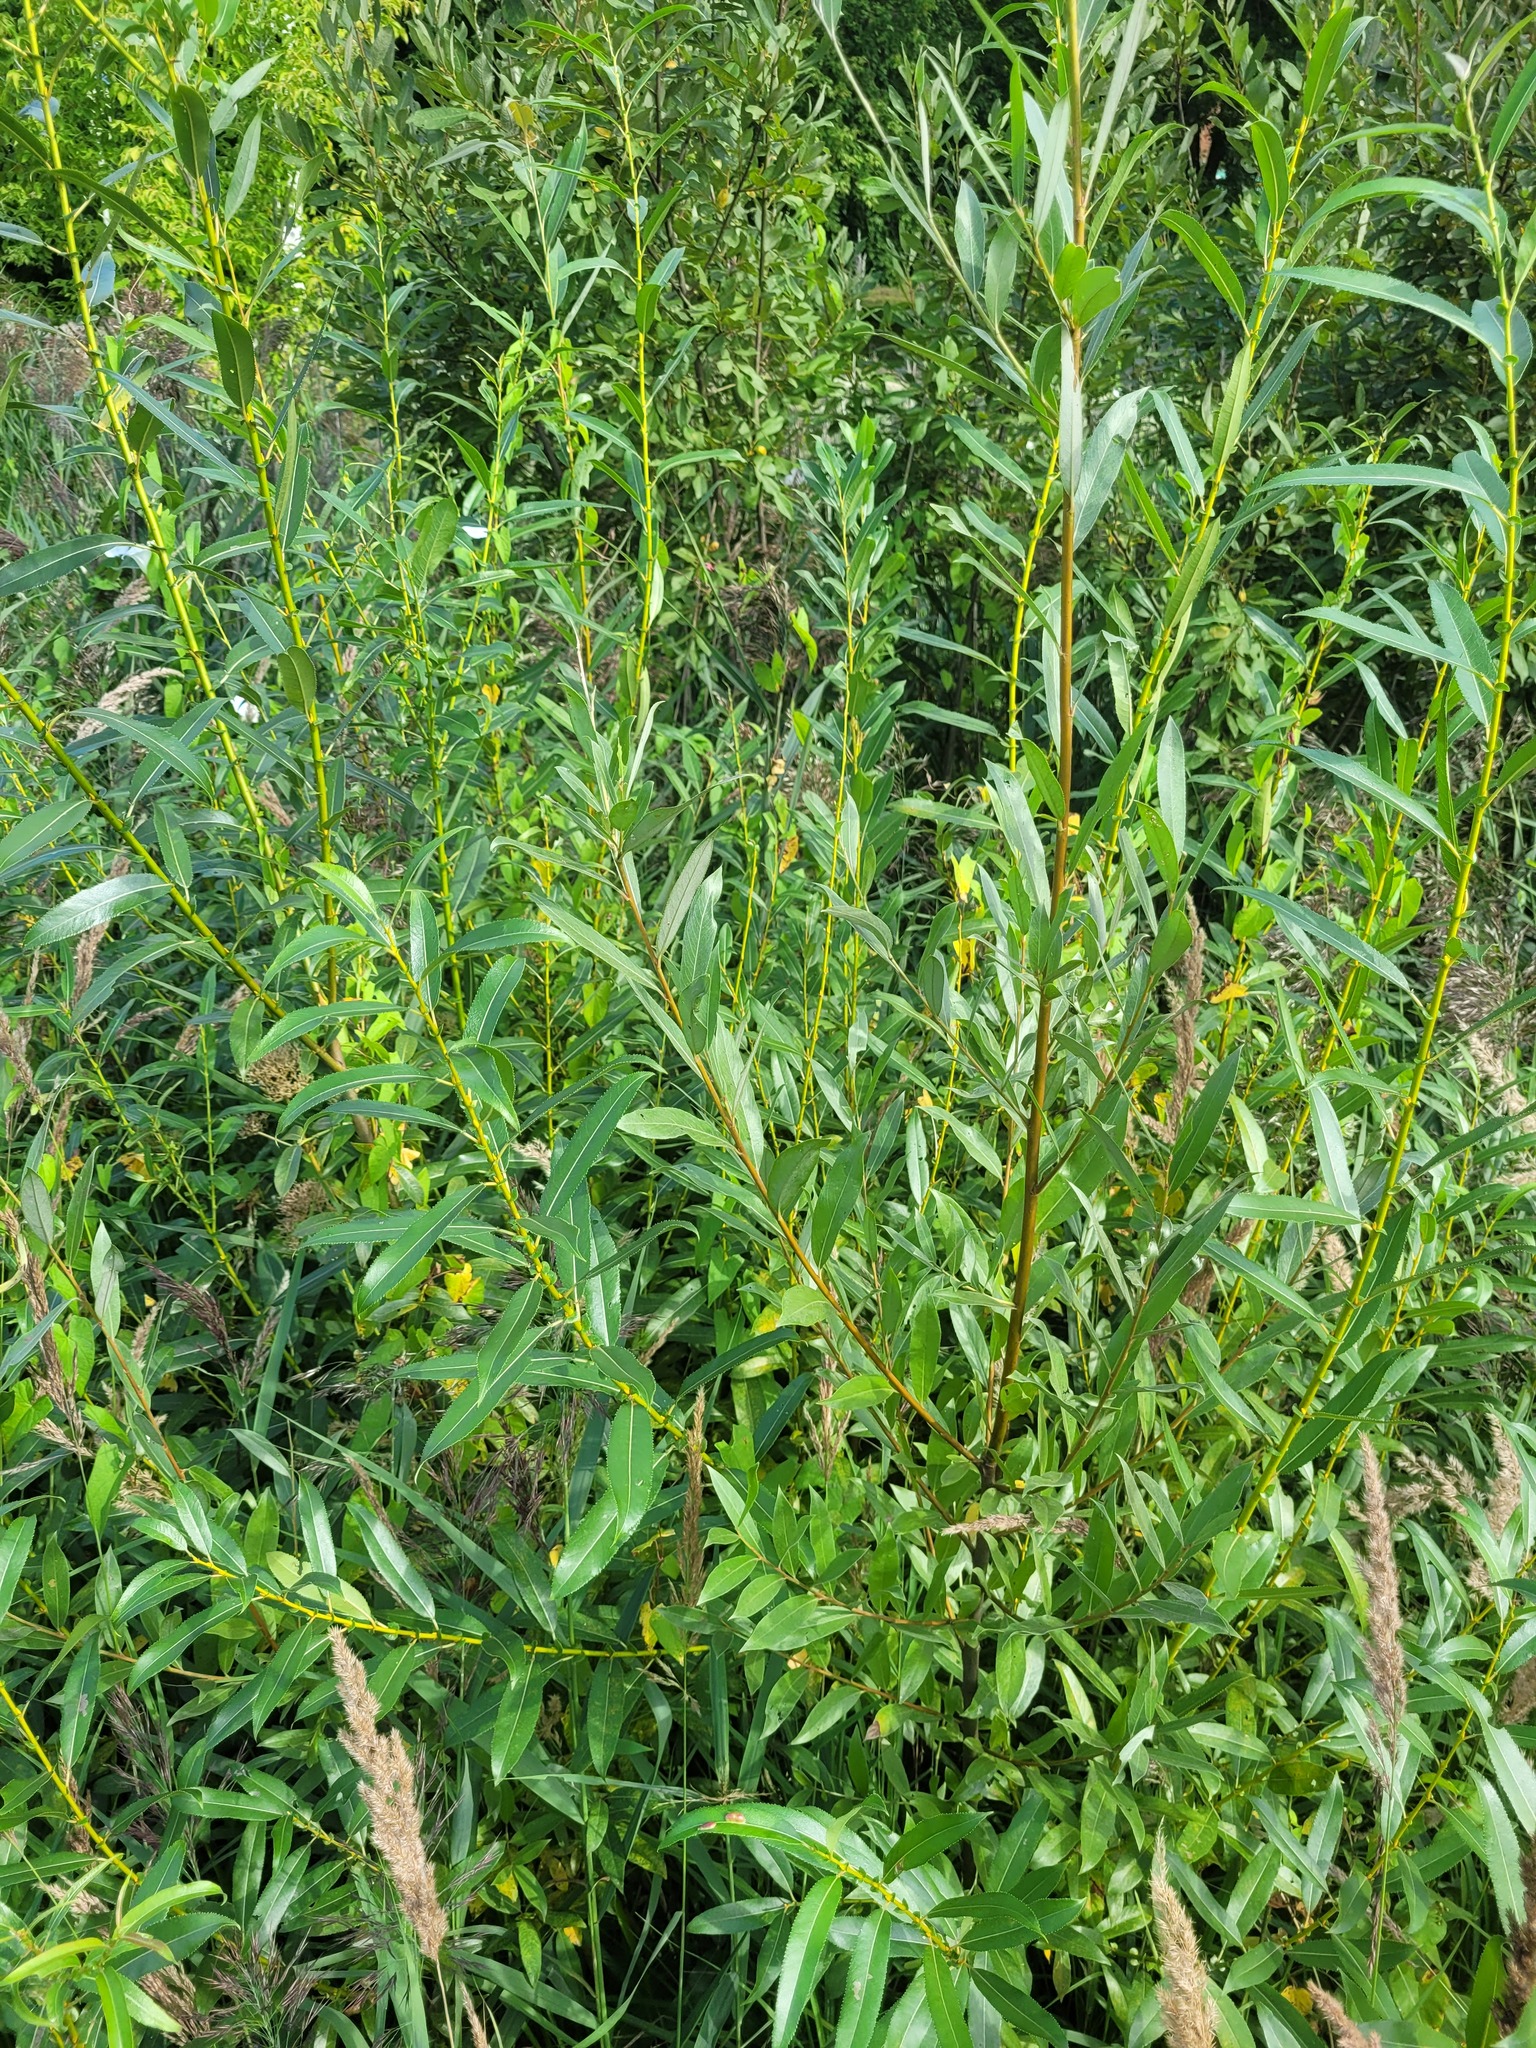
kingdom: Plantae
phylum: Tracheophyta
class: Magnoliopsida
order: Malpighiales
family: Salicaceae
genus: Salix
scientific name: Salix alba
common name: White willow
